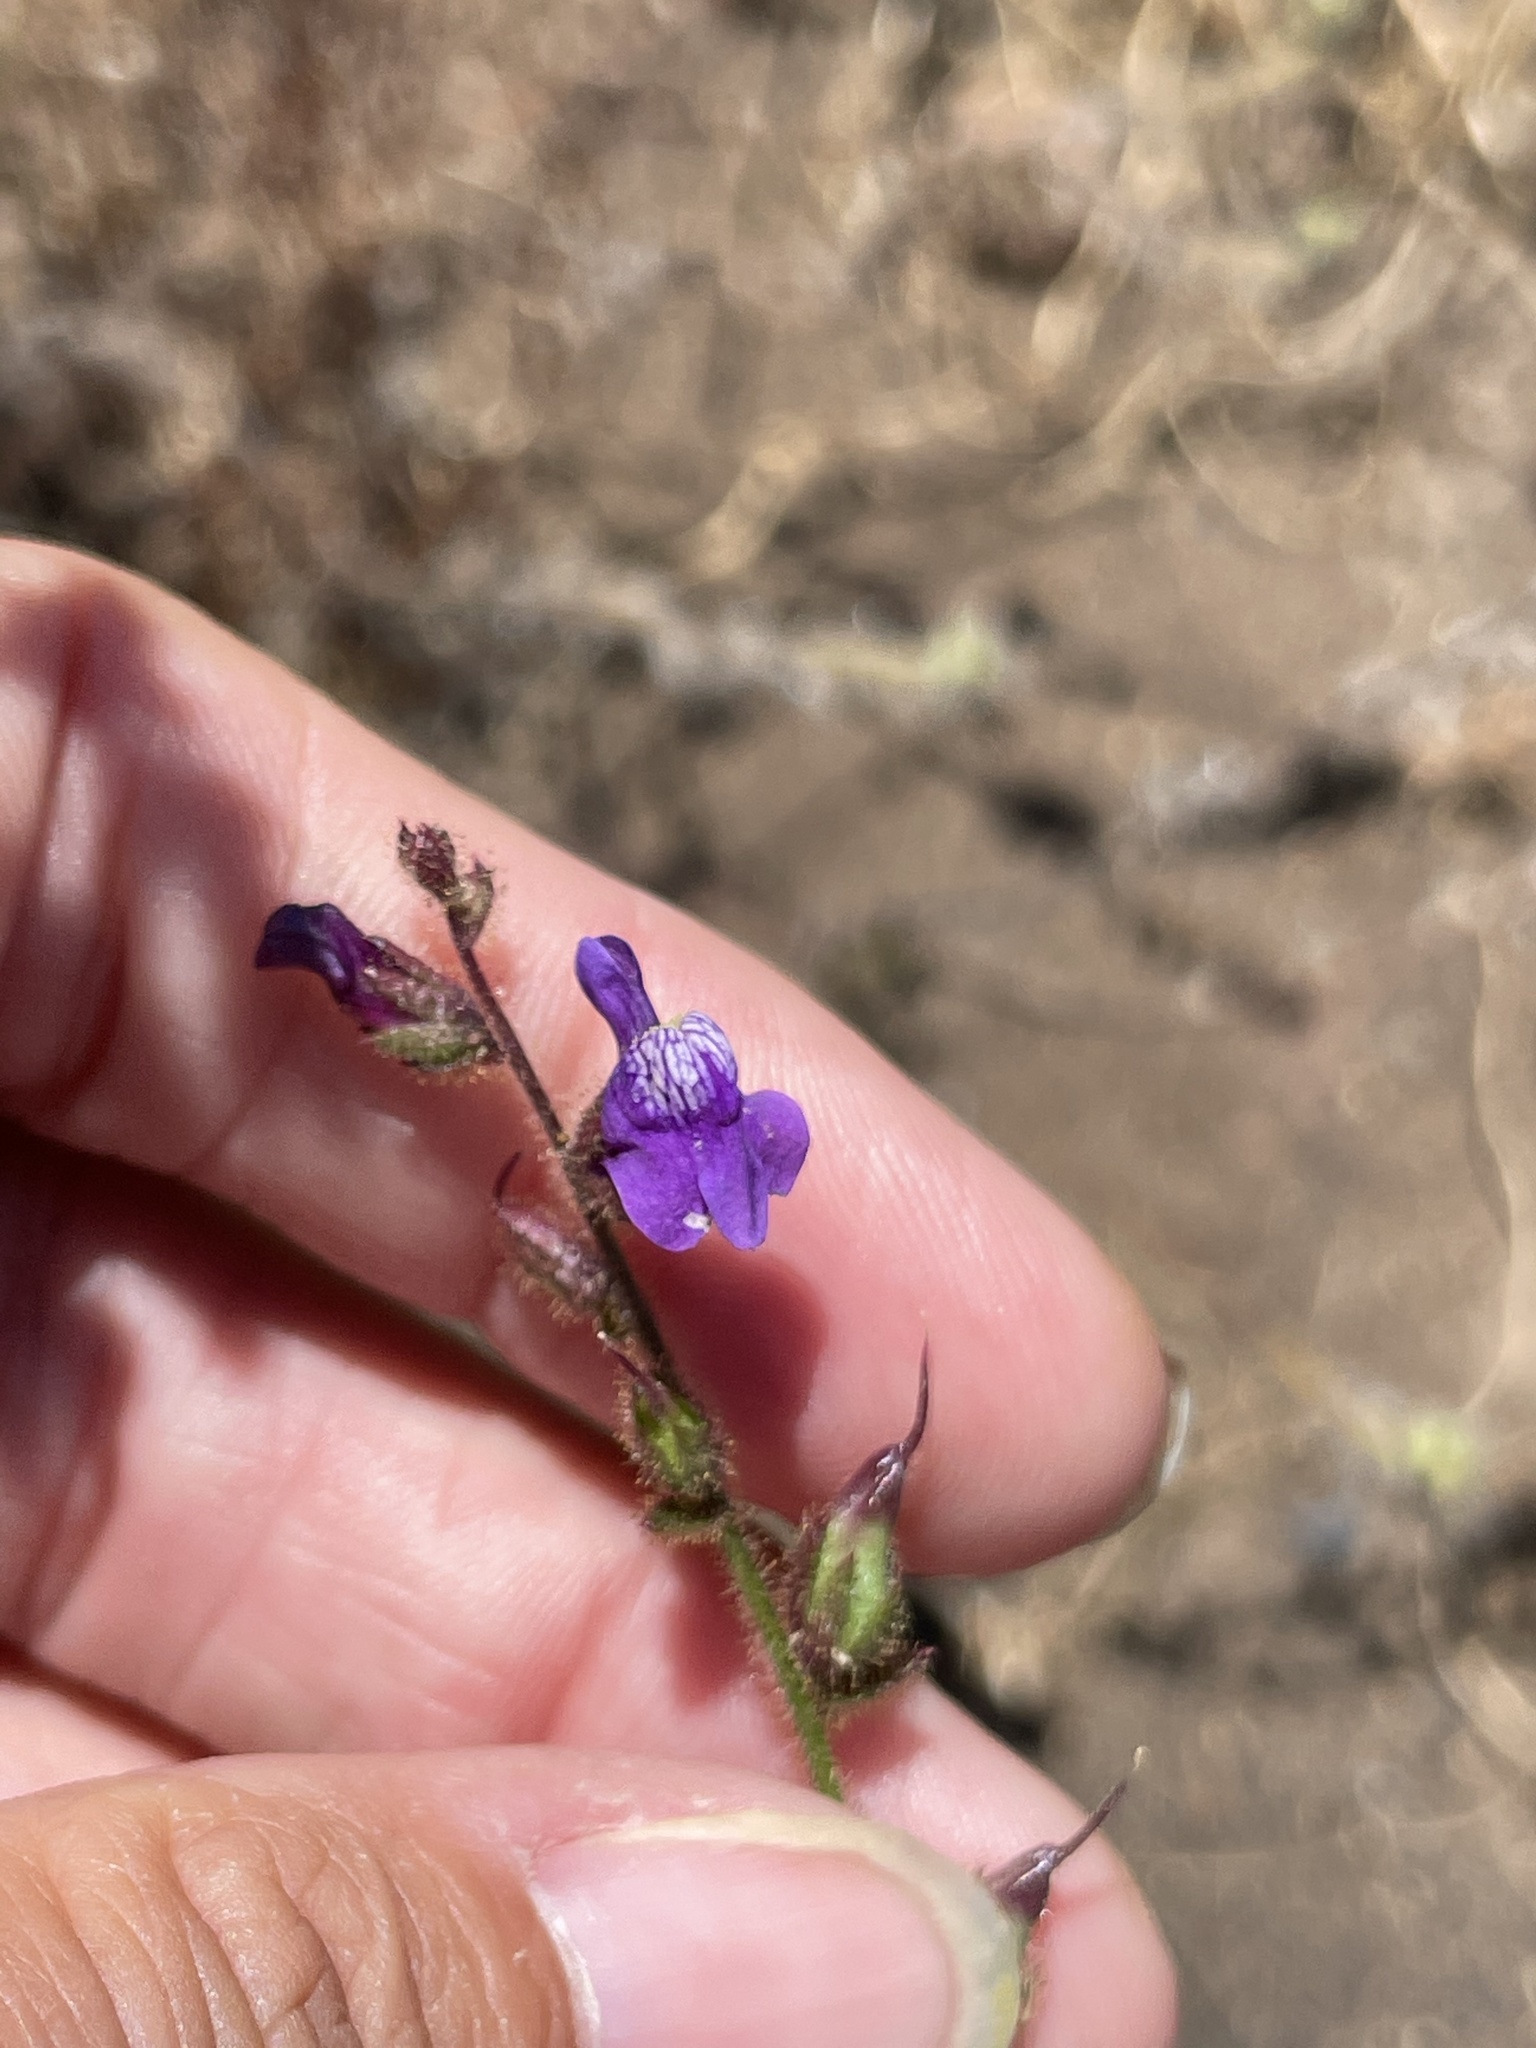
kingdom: Plantae
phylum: Tracheophyta
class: Magnoliopsida
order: Lamiales
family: Plantaginaceae
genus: Sairocarpus
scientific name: Sairocarpus nuttallianus
